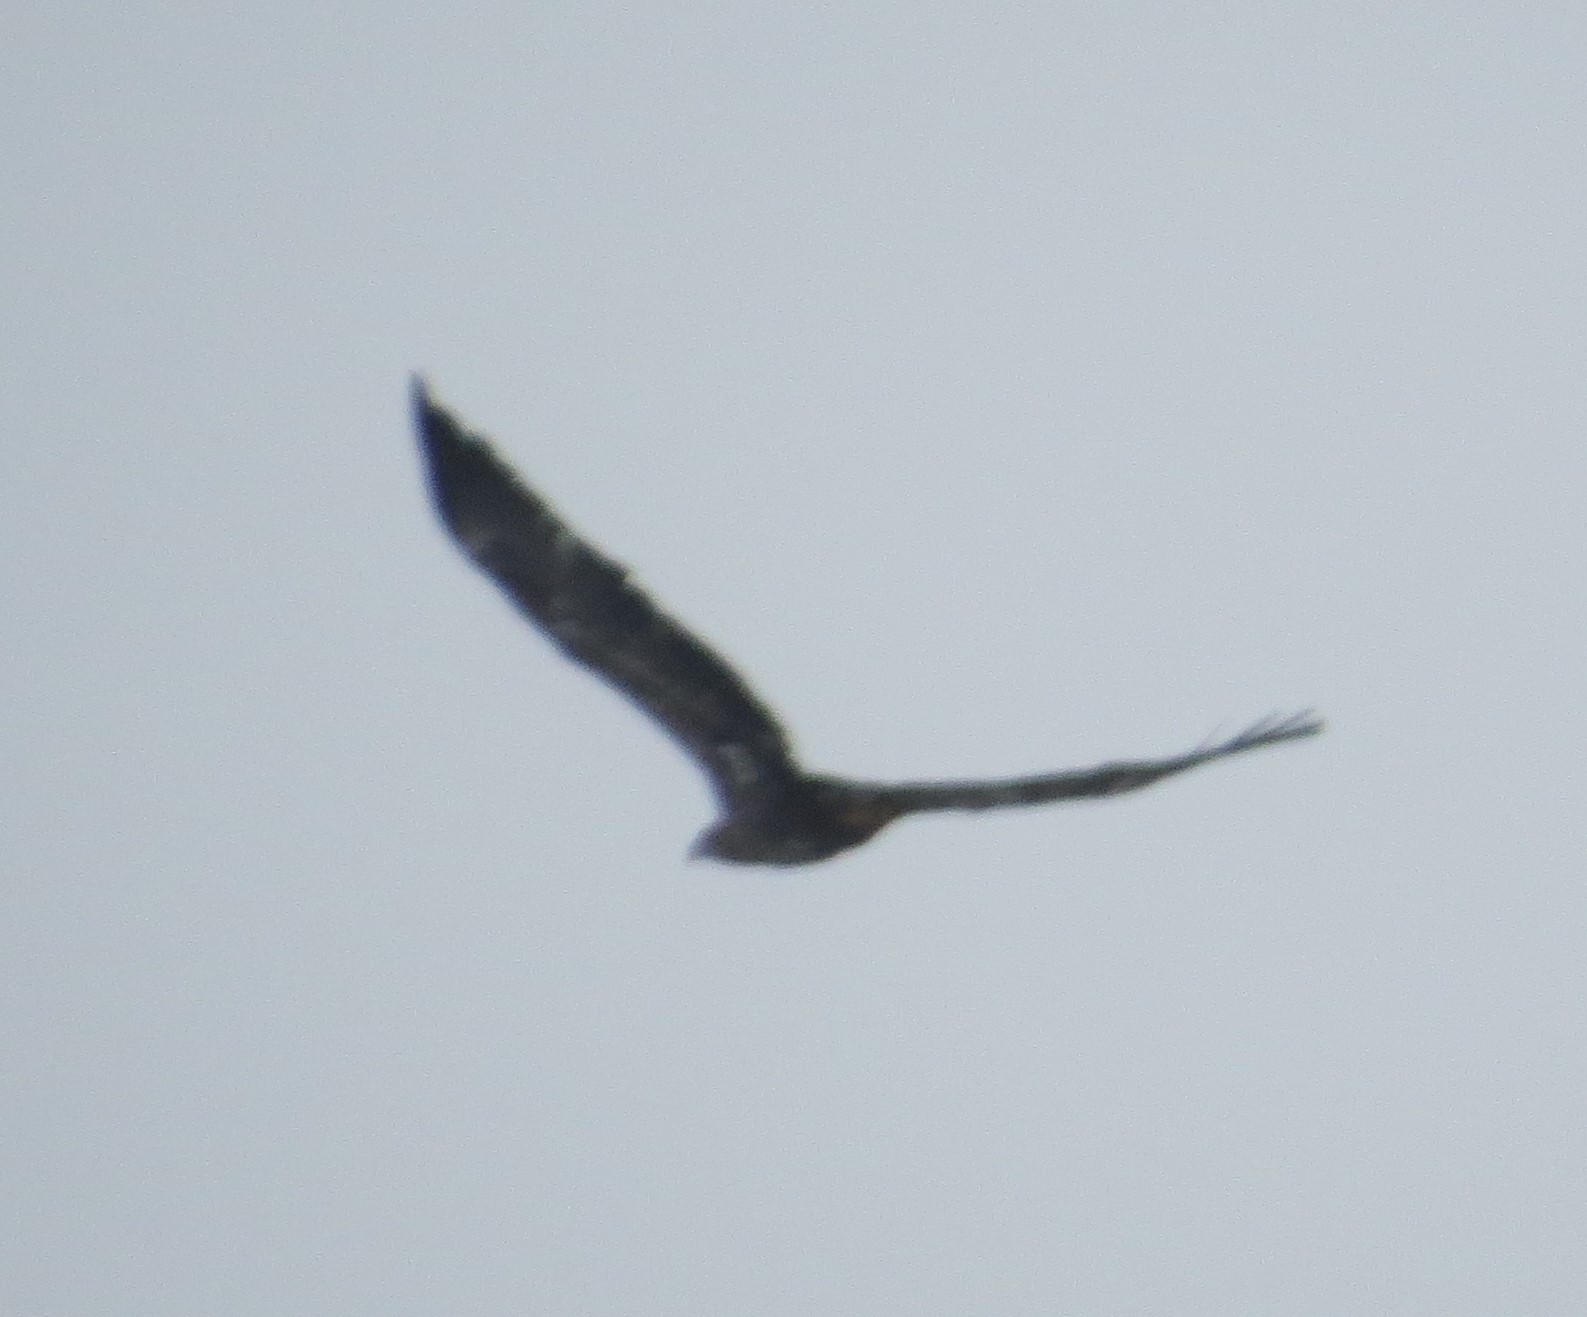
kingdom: Animalia
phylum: Chordata
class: Aves
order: Accipitriformes
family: Accipitridae
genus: Haliaeetus
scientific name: Haliaeetus leucocephalus
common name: Bald eagle
